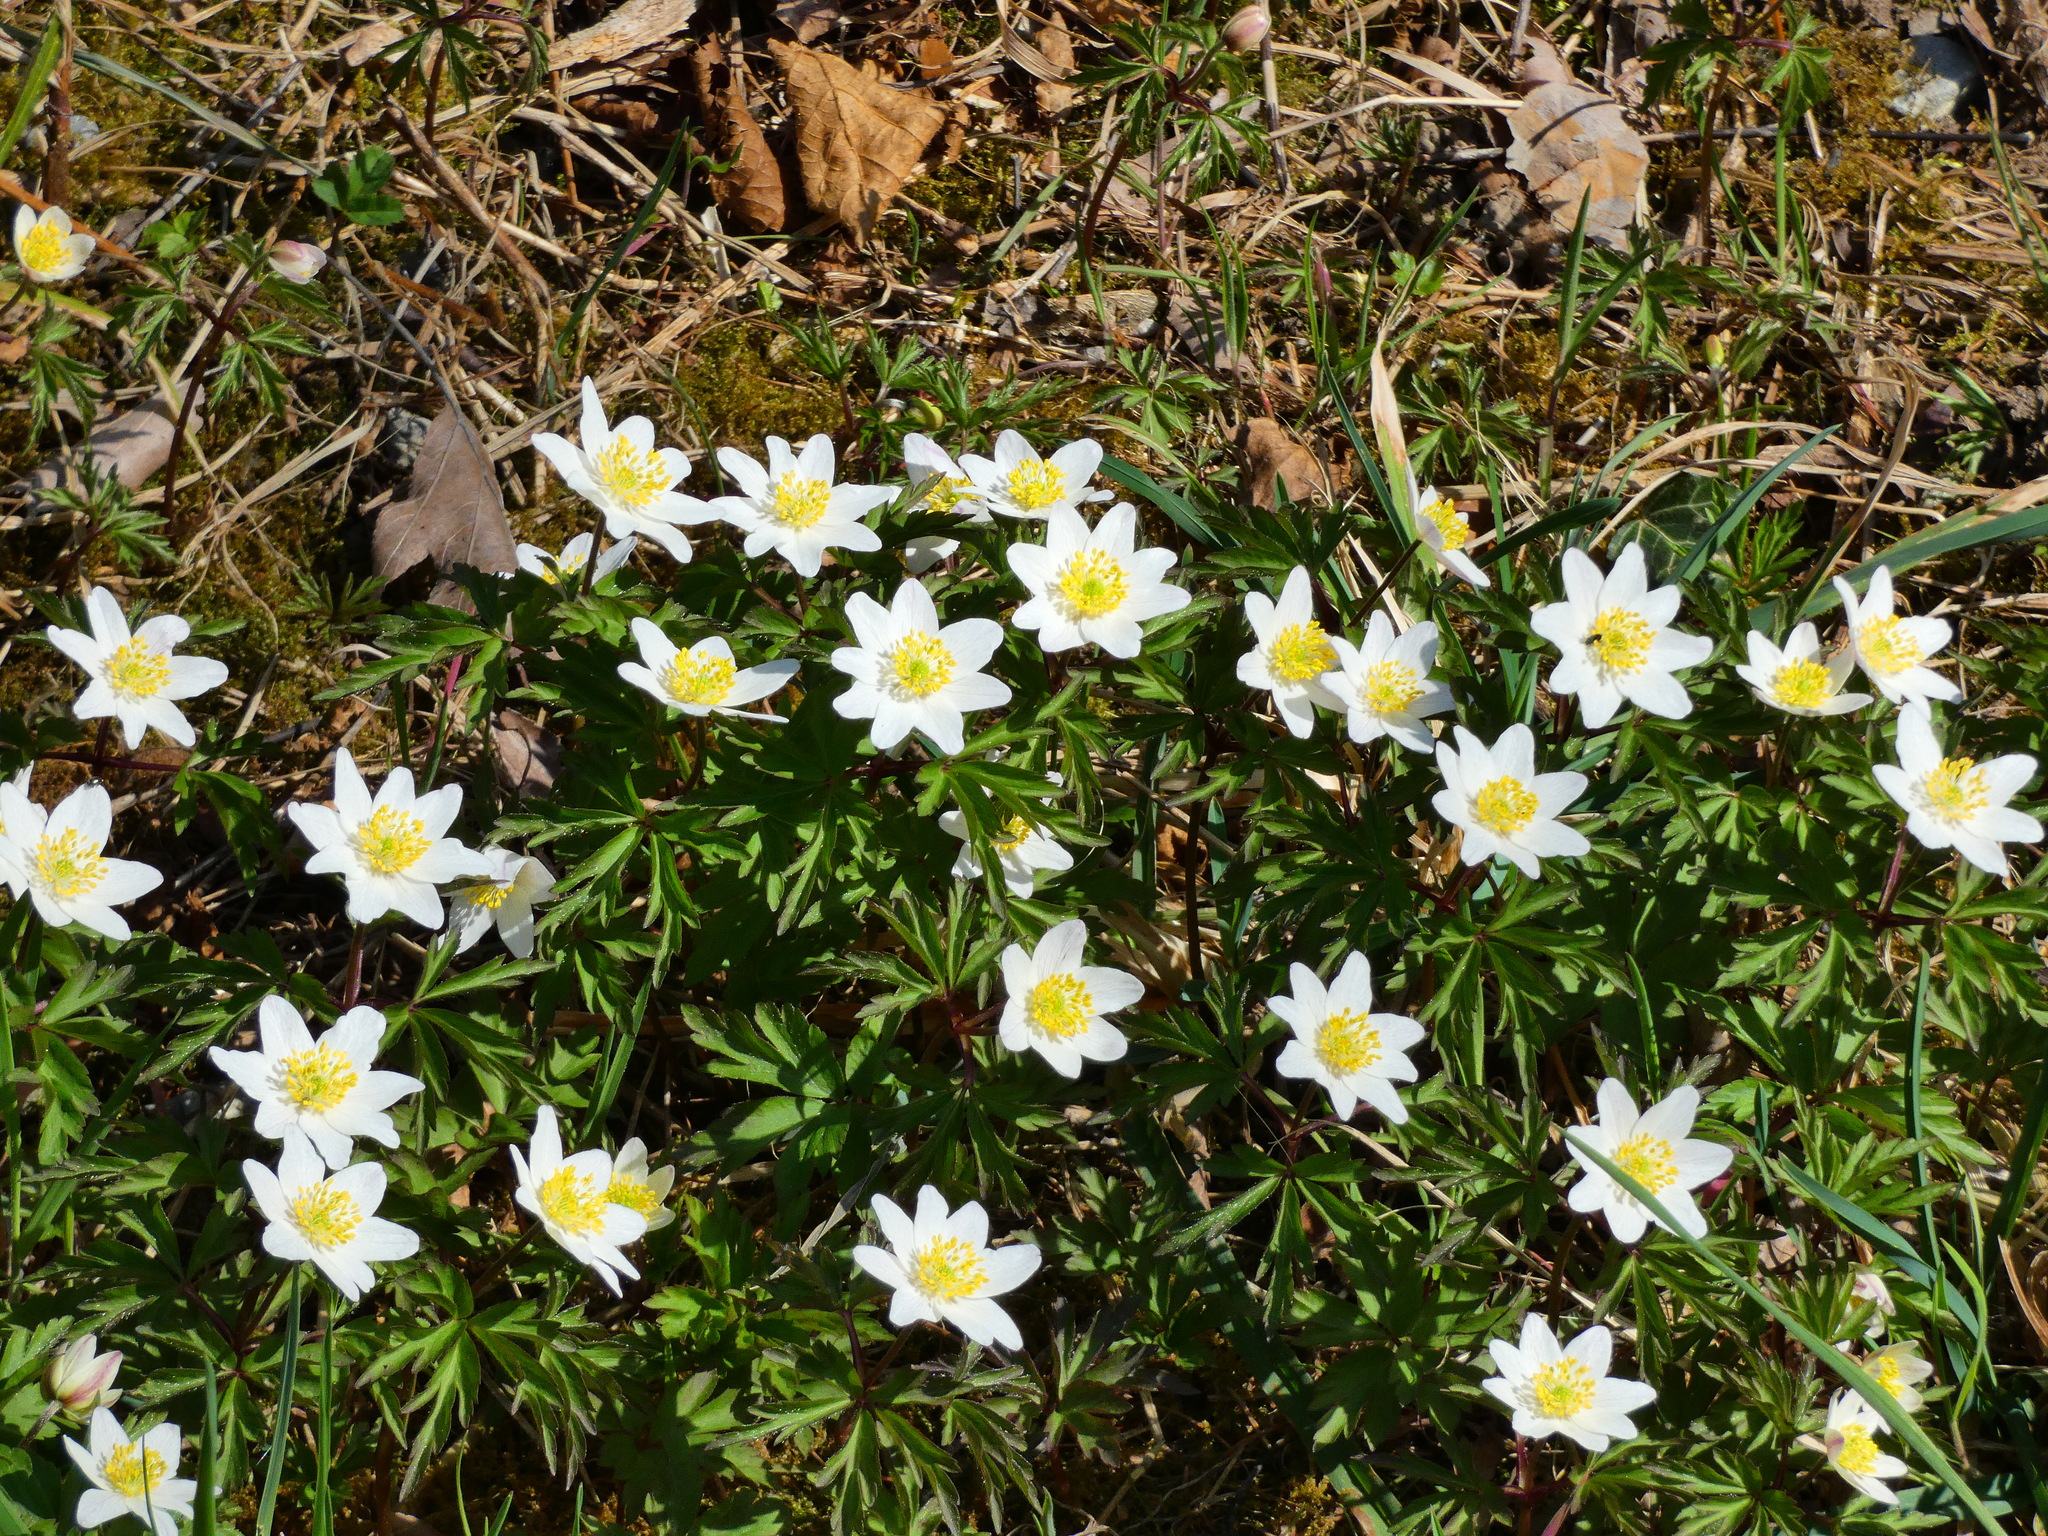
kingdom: Plantae
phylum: Tracheophyta
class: Magnoliopsida
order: Ranunculales
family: Ranunculaceae
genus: Anemone
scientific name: Anemone nemorosa
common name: Wood anemone
